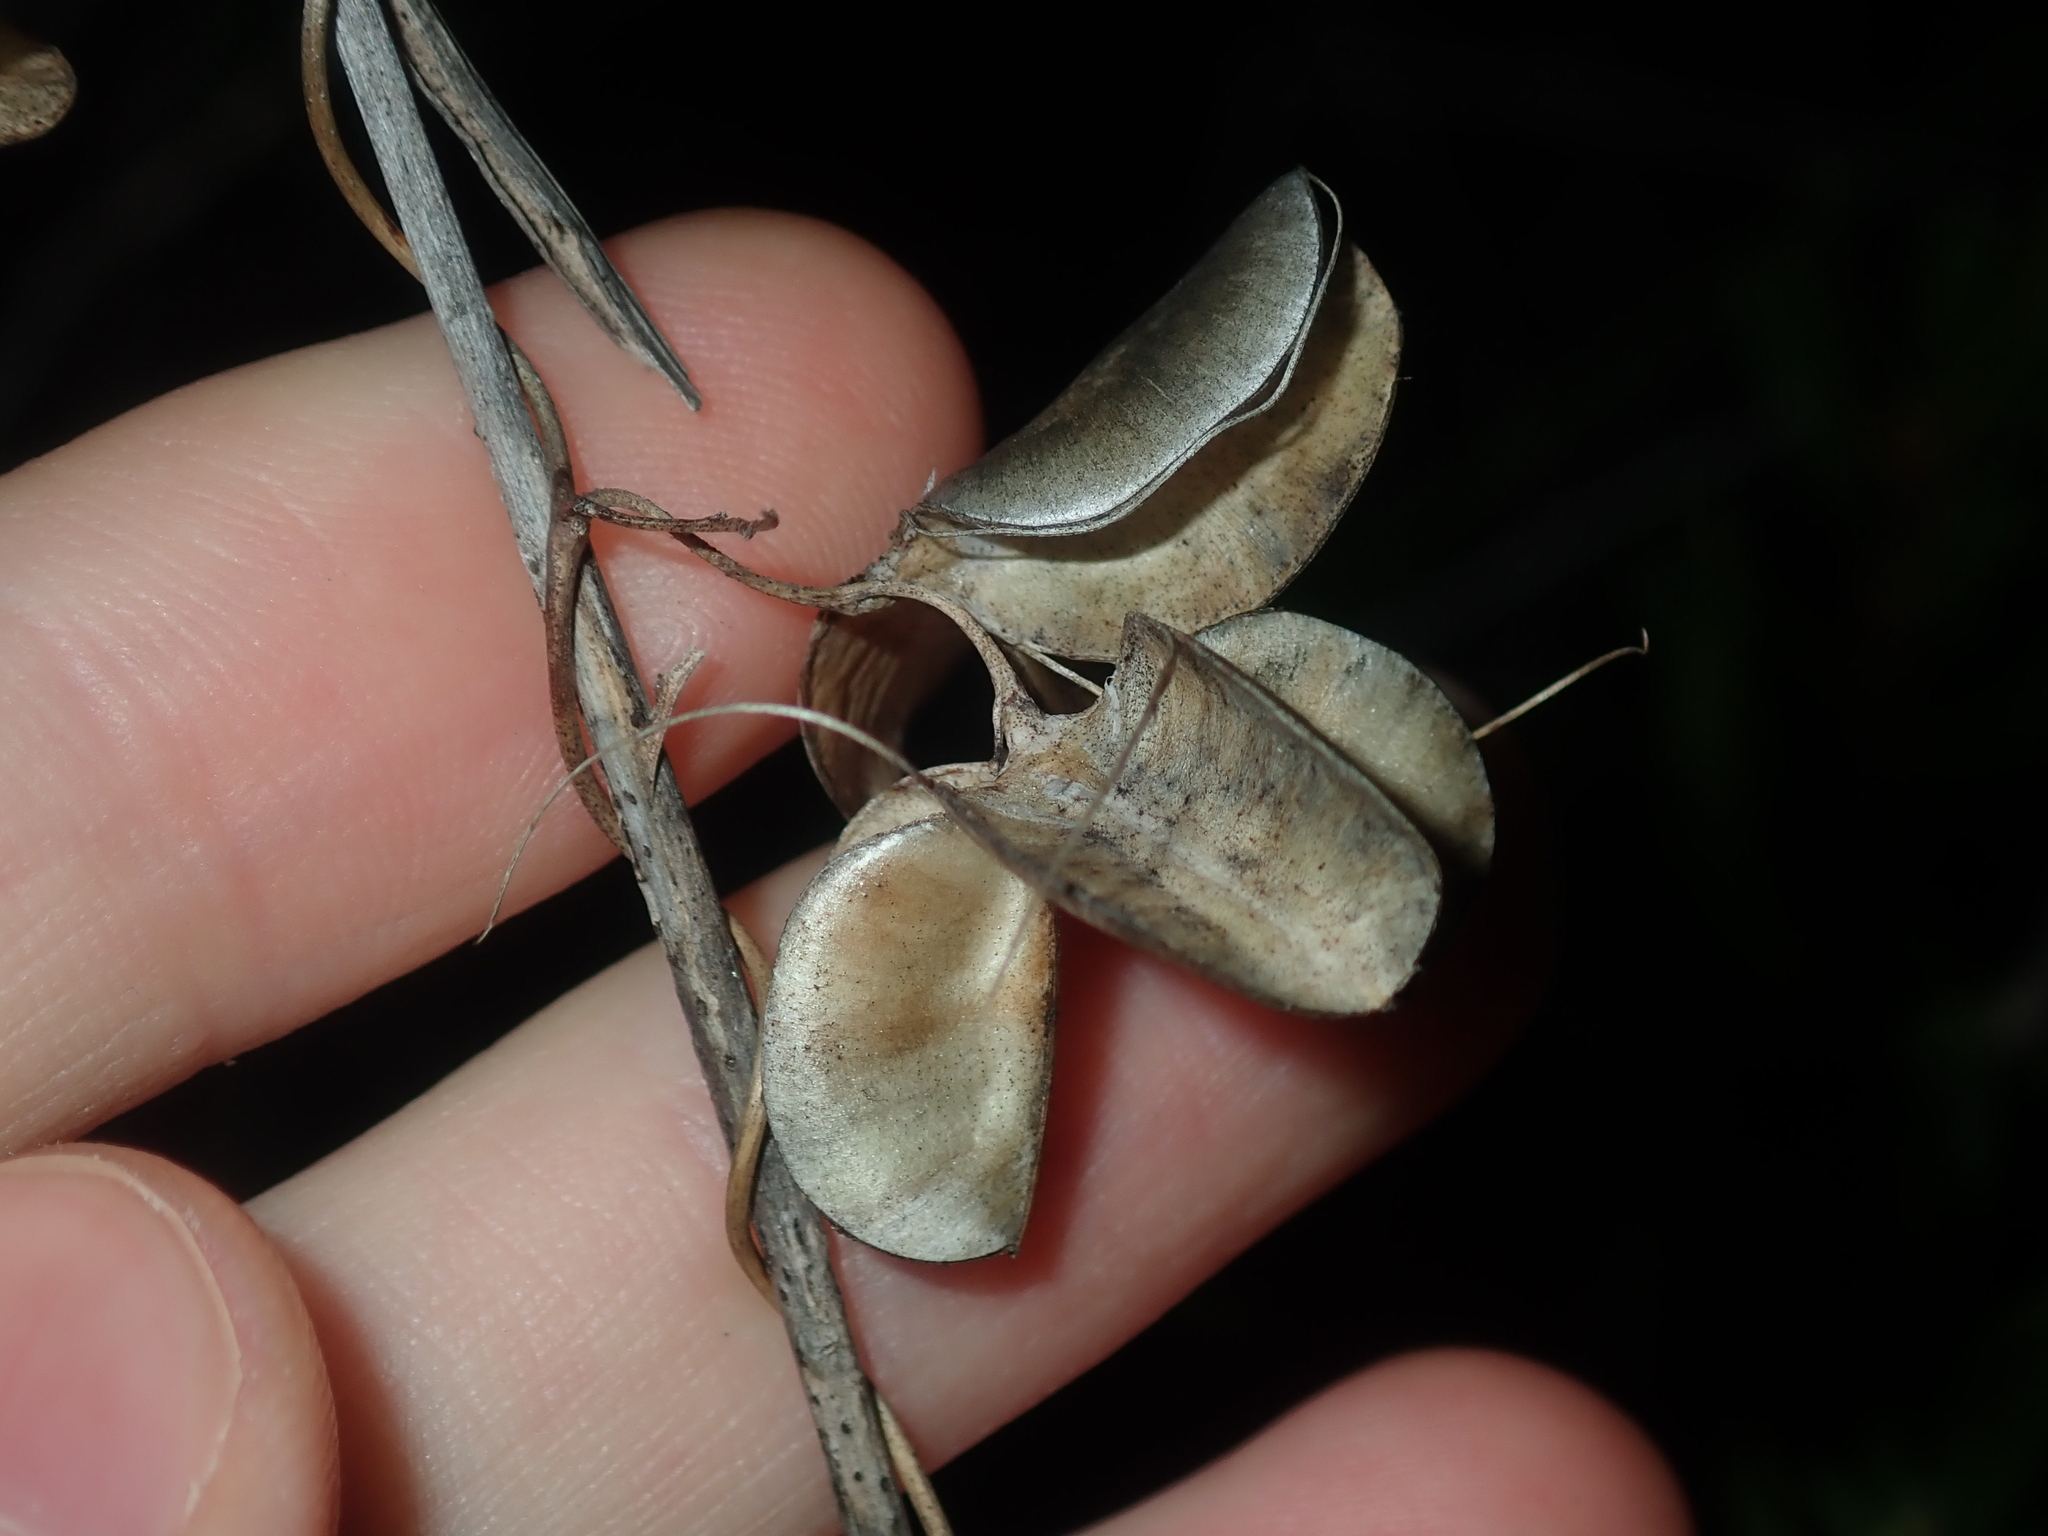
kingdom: Plantae
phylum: Tracheophyta
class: Liliopsida
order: Dioscoreales
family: Dioscoreaceae
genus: Dioscorea
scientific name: Dioscorea hastifolia
